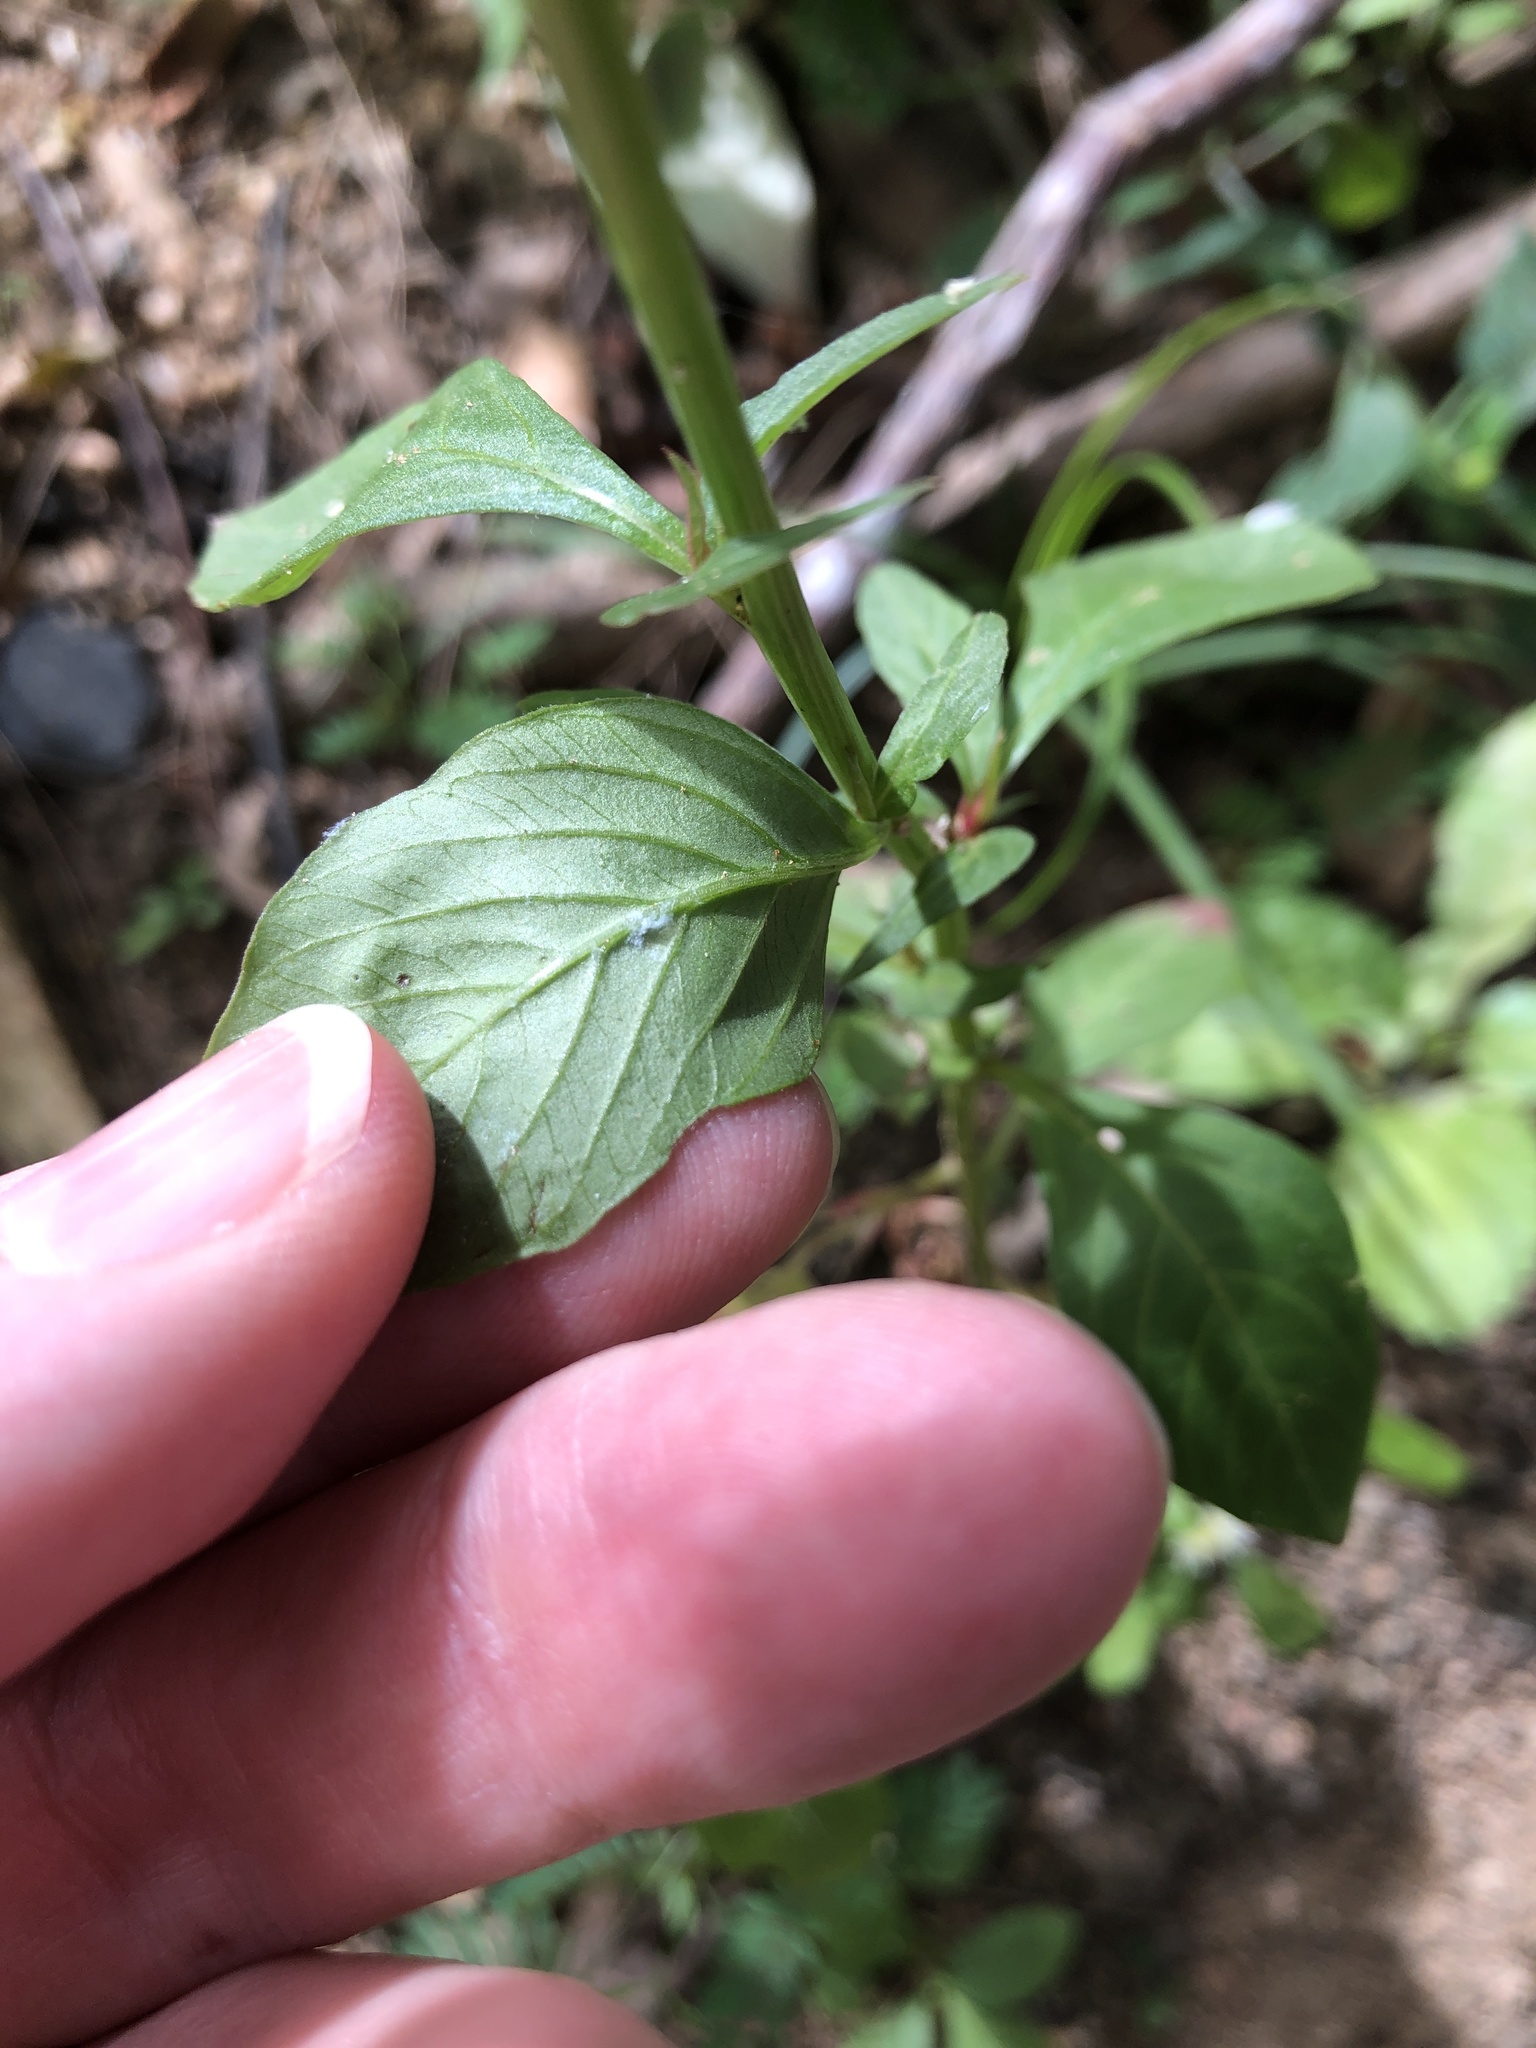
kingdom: Plantae
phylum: Tracheophyta
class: Magnoliopsida
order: Caryophyllales
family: Amaranthaceae
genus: Celosia
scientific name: Celosia argentea
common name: Feather cockscomb
